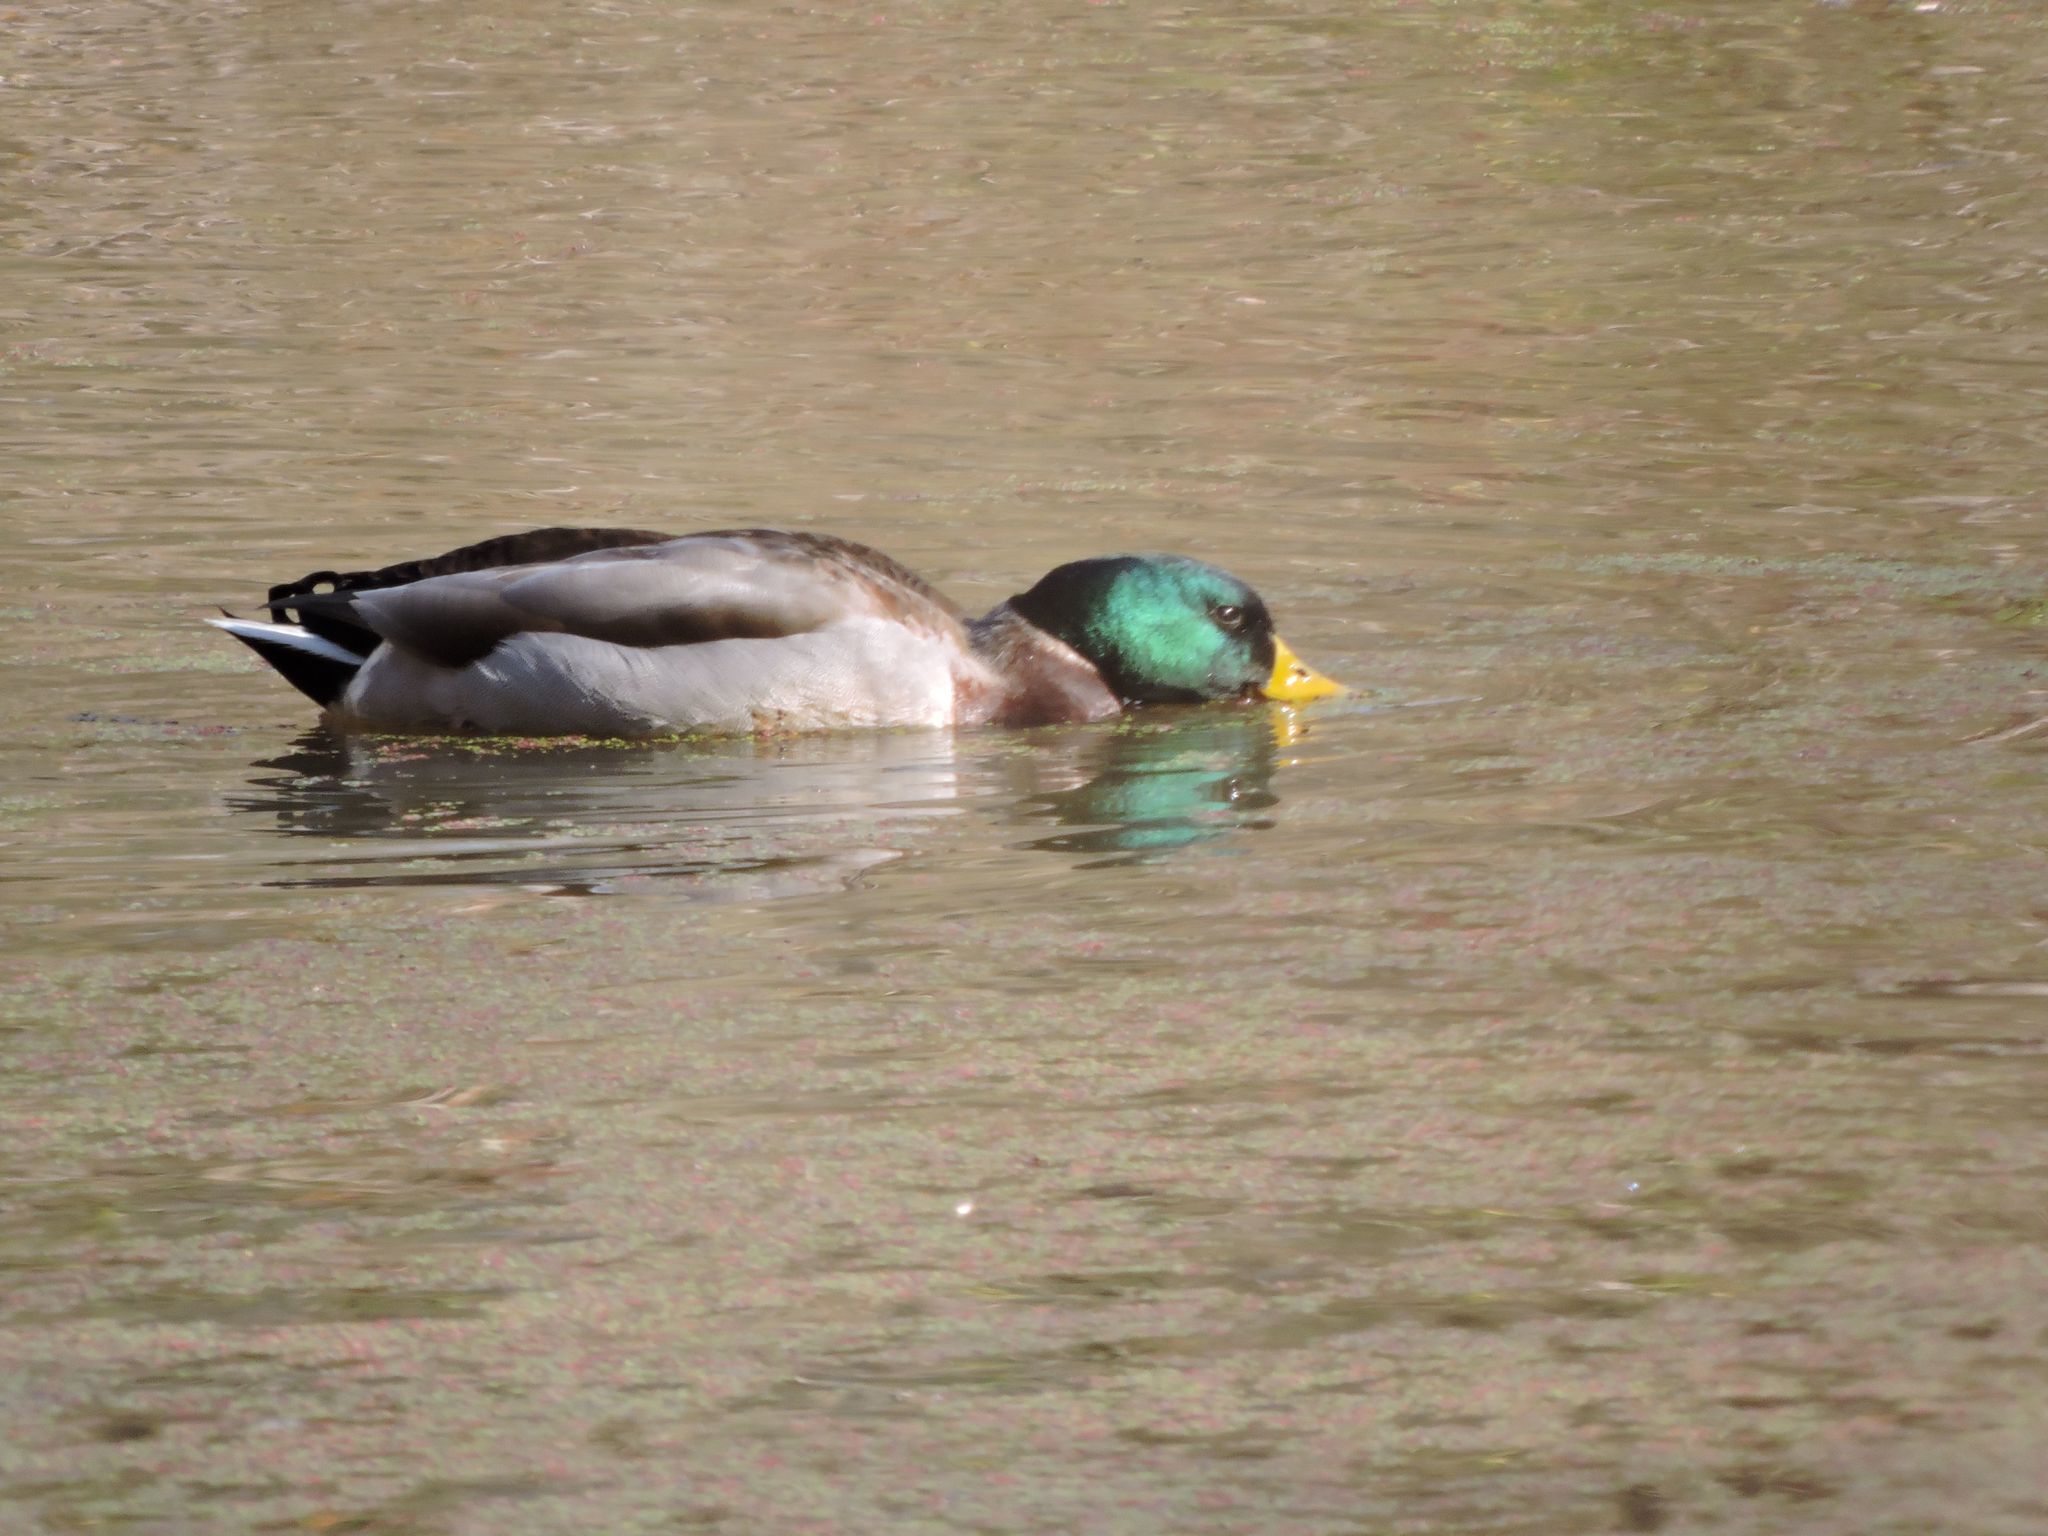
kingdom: Animalia
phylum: Chordata
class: Aves
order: Anseriformes
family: Anatidae
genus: Anas
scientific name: Anas platyrhynchos
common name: Mallard
